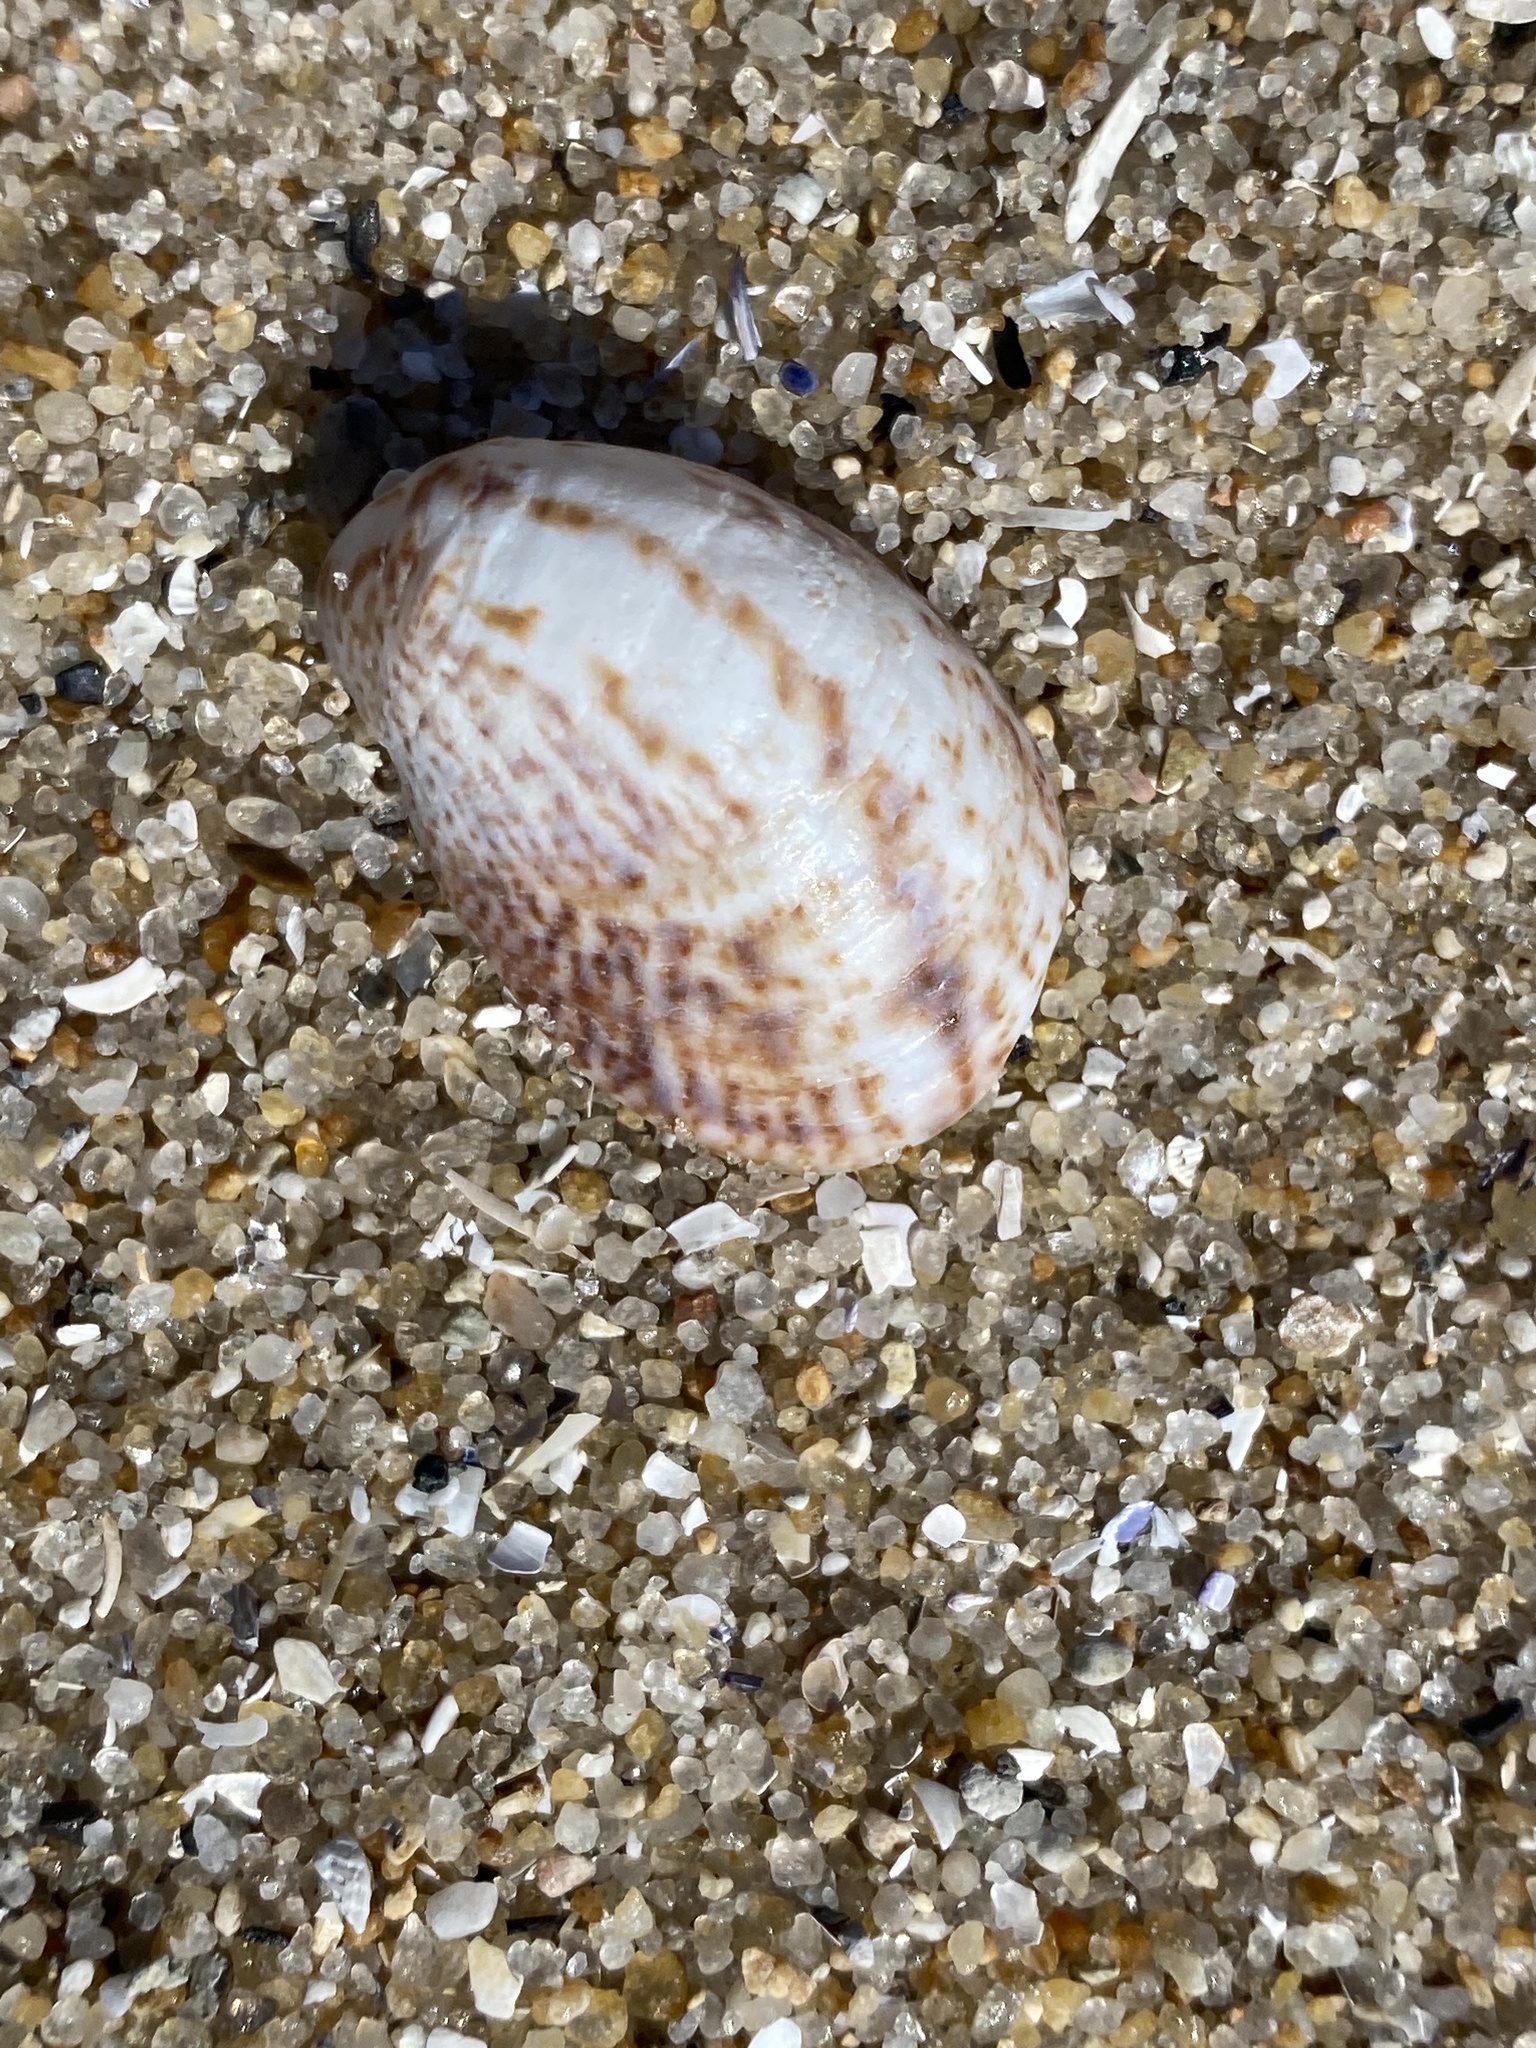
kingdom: Animalia
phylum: Mollusca
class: Gastropoda
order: Littorinimorpha
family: Calyptraeidae
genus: Crepidula
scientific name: Crepidula fornicata
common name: Slipper limpet
